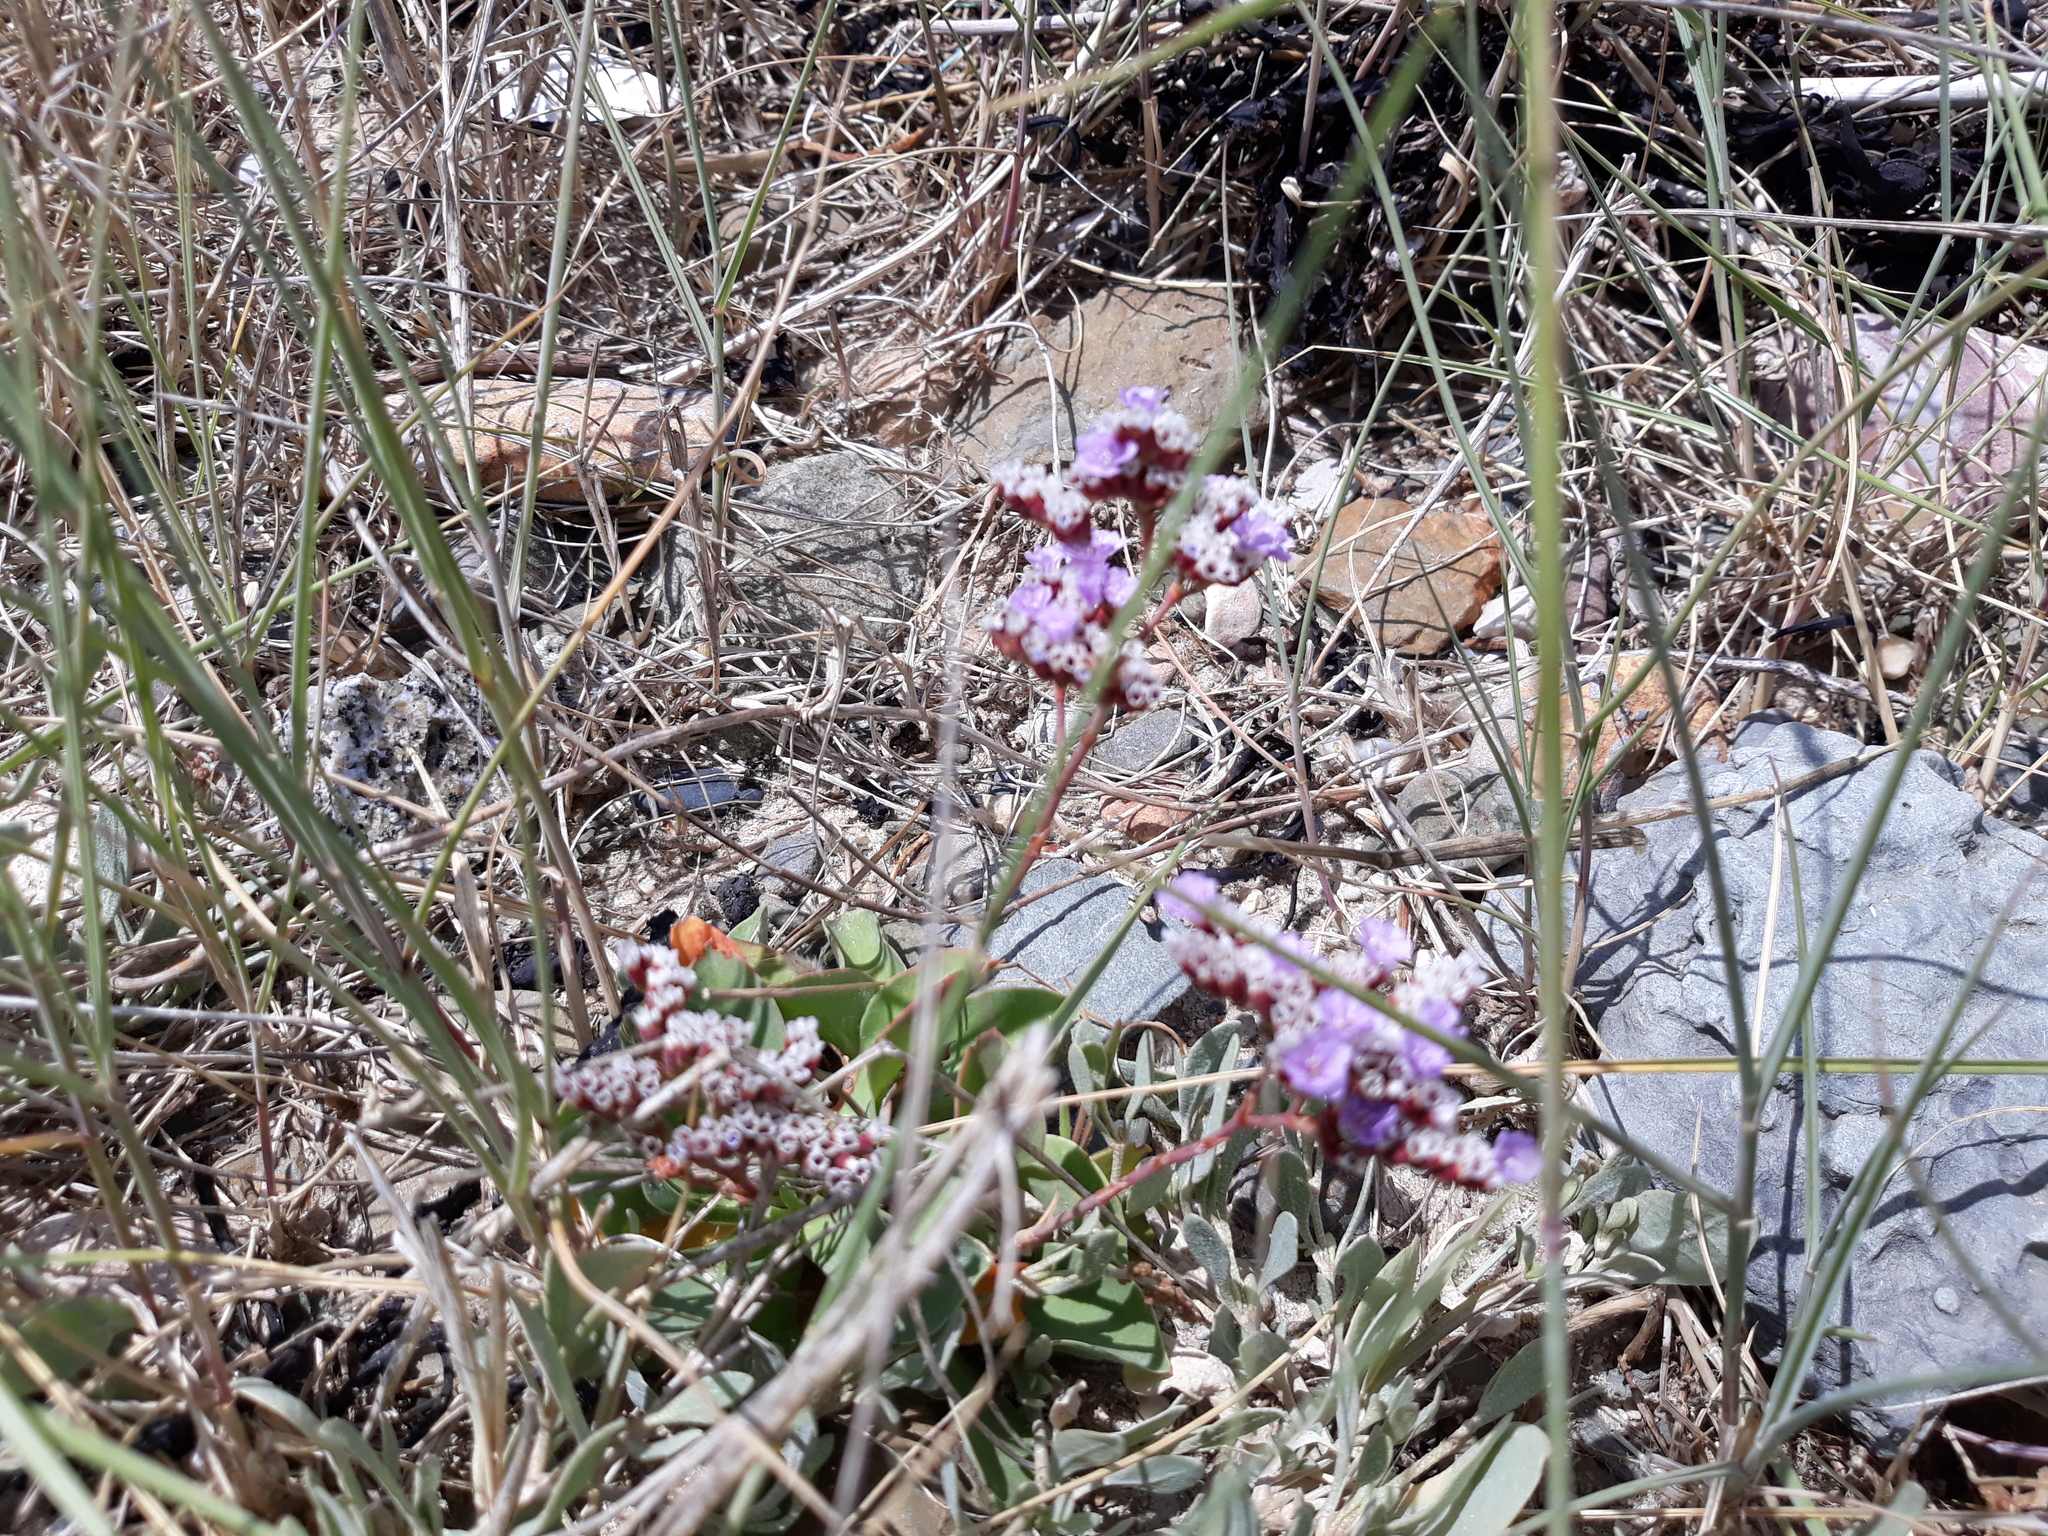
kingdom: Plantae
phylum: Tracheophyta
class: Magnoliopsida
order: Caryophyllales
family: Plumbaginaceae
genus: Limonium
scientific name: Limonium vulgare
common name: Common sea-lavender
